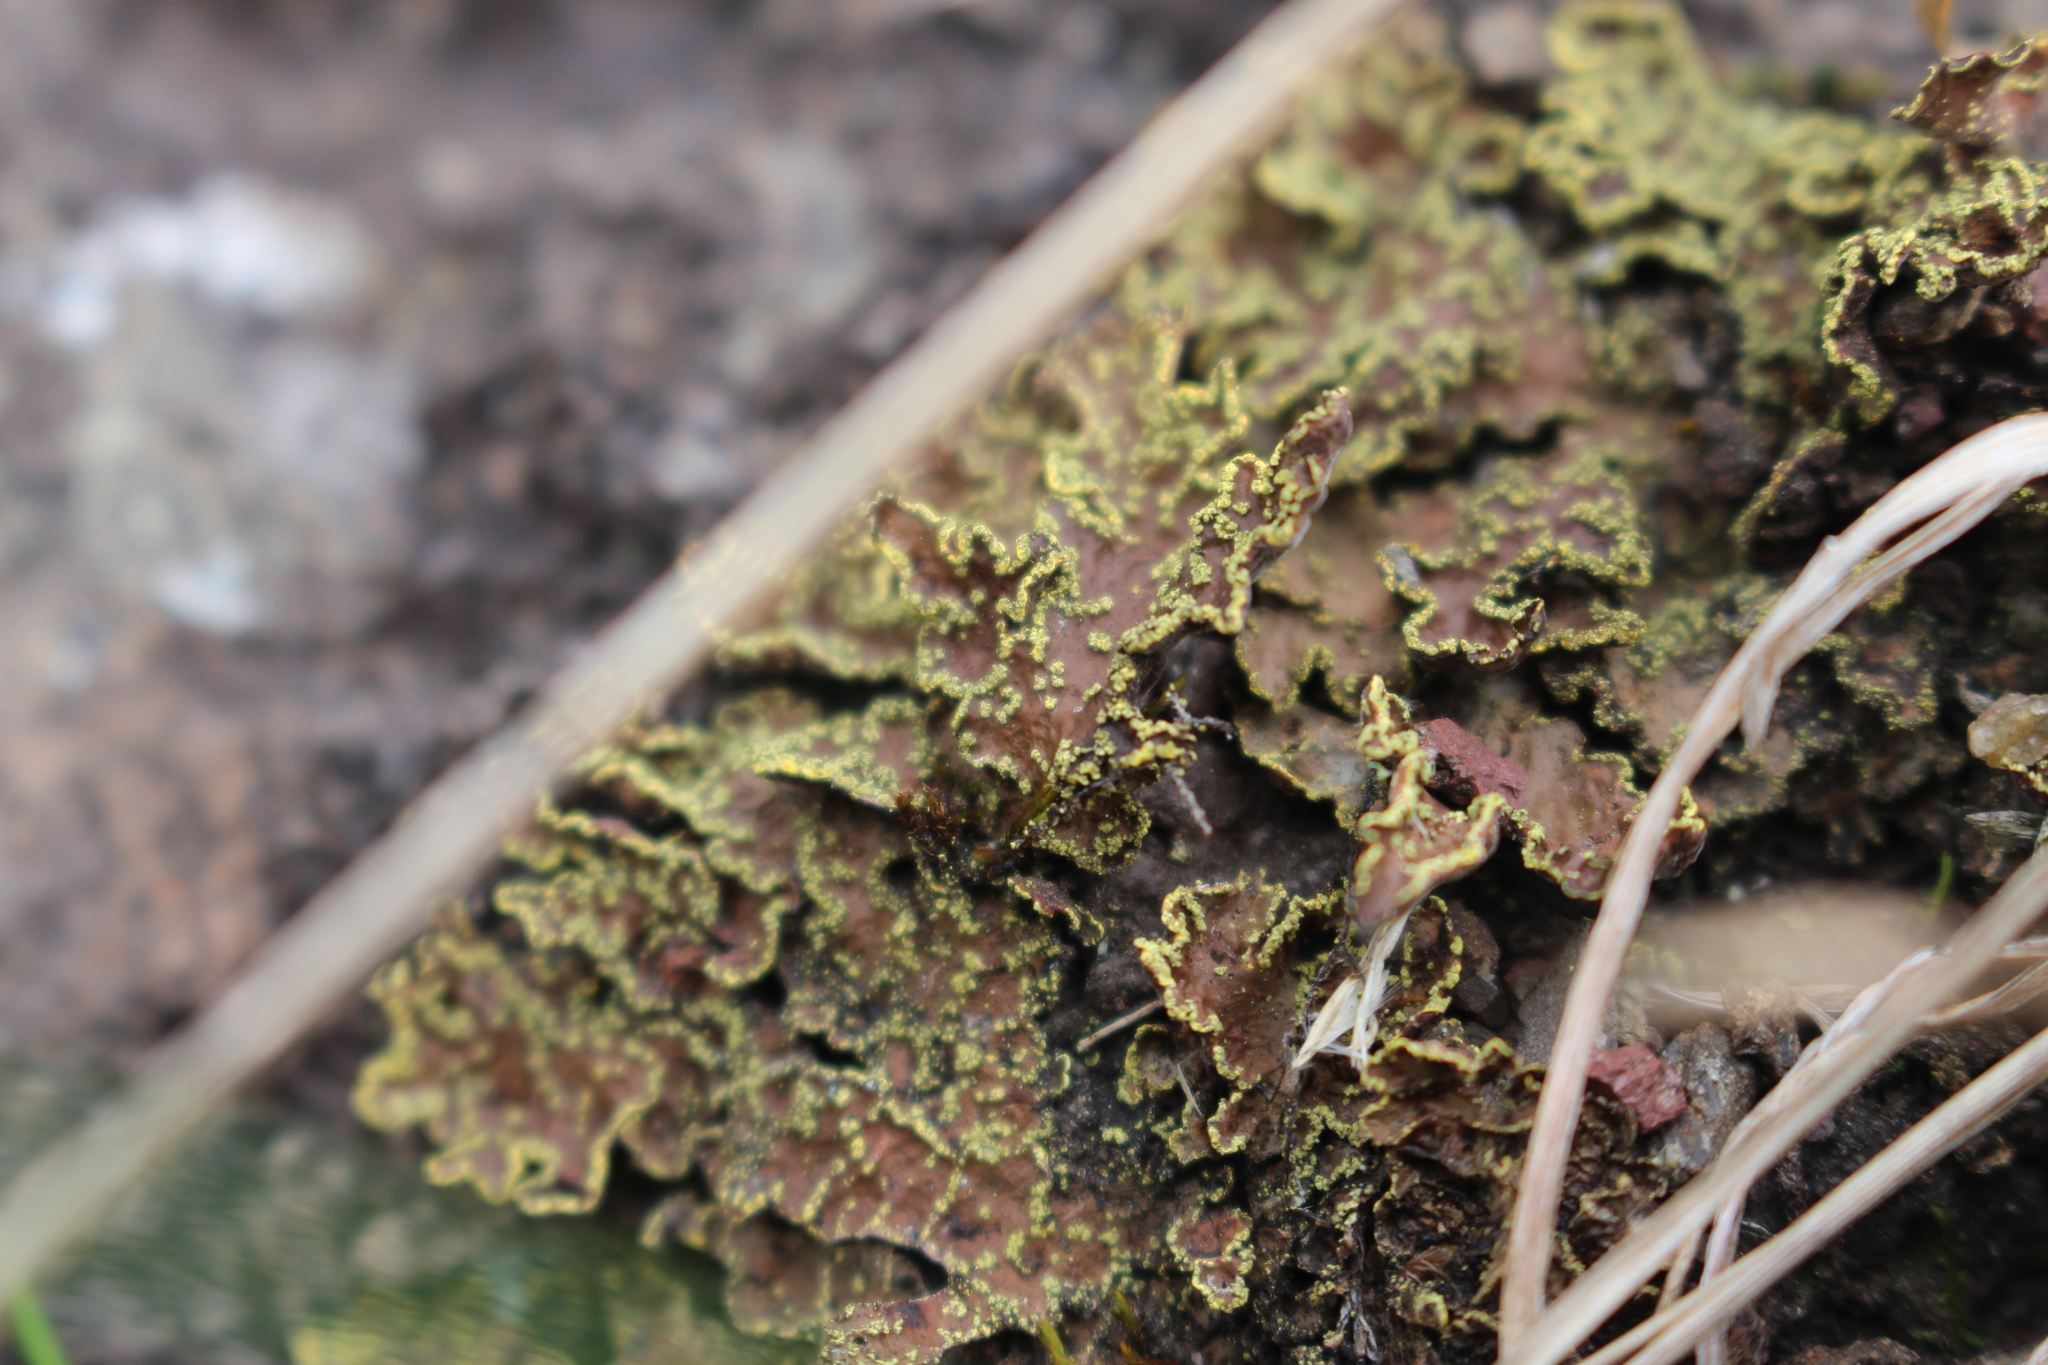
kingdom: Fungi
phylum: Ascomycota
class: Lecanoromycetes
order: Peltigerales
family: Lobariaceae
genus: Pseudocyphellaria
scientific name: Pseudocyphellaria crocata
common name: Golden specklebelly
